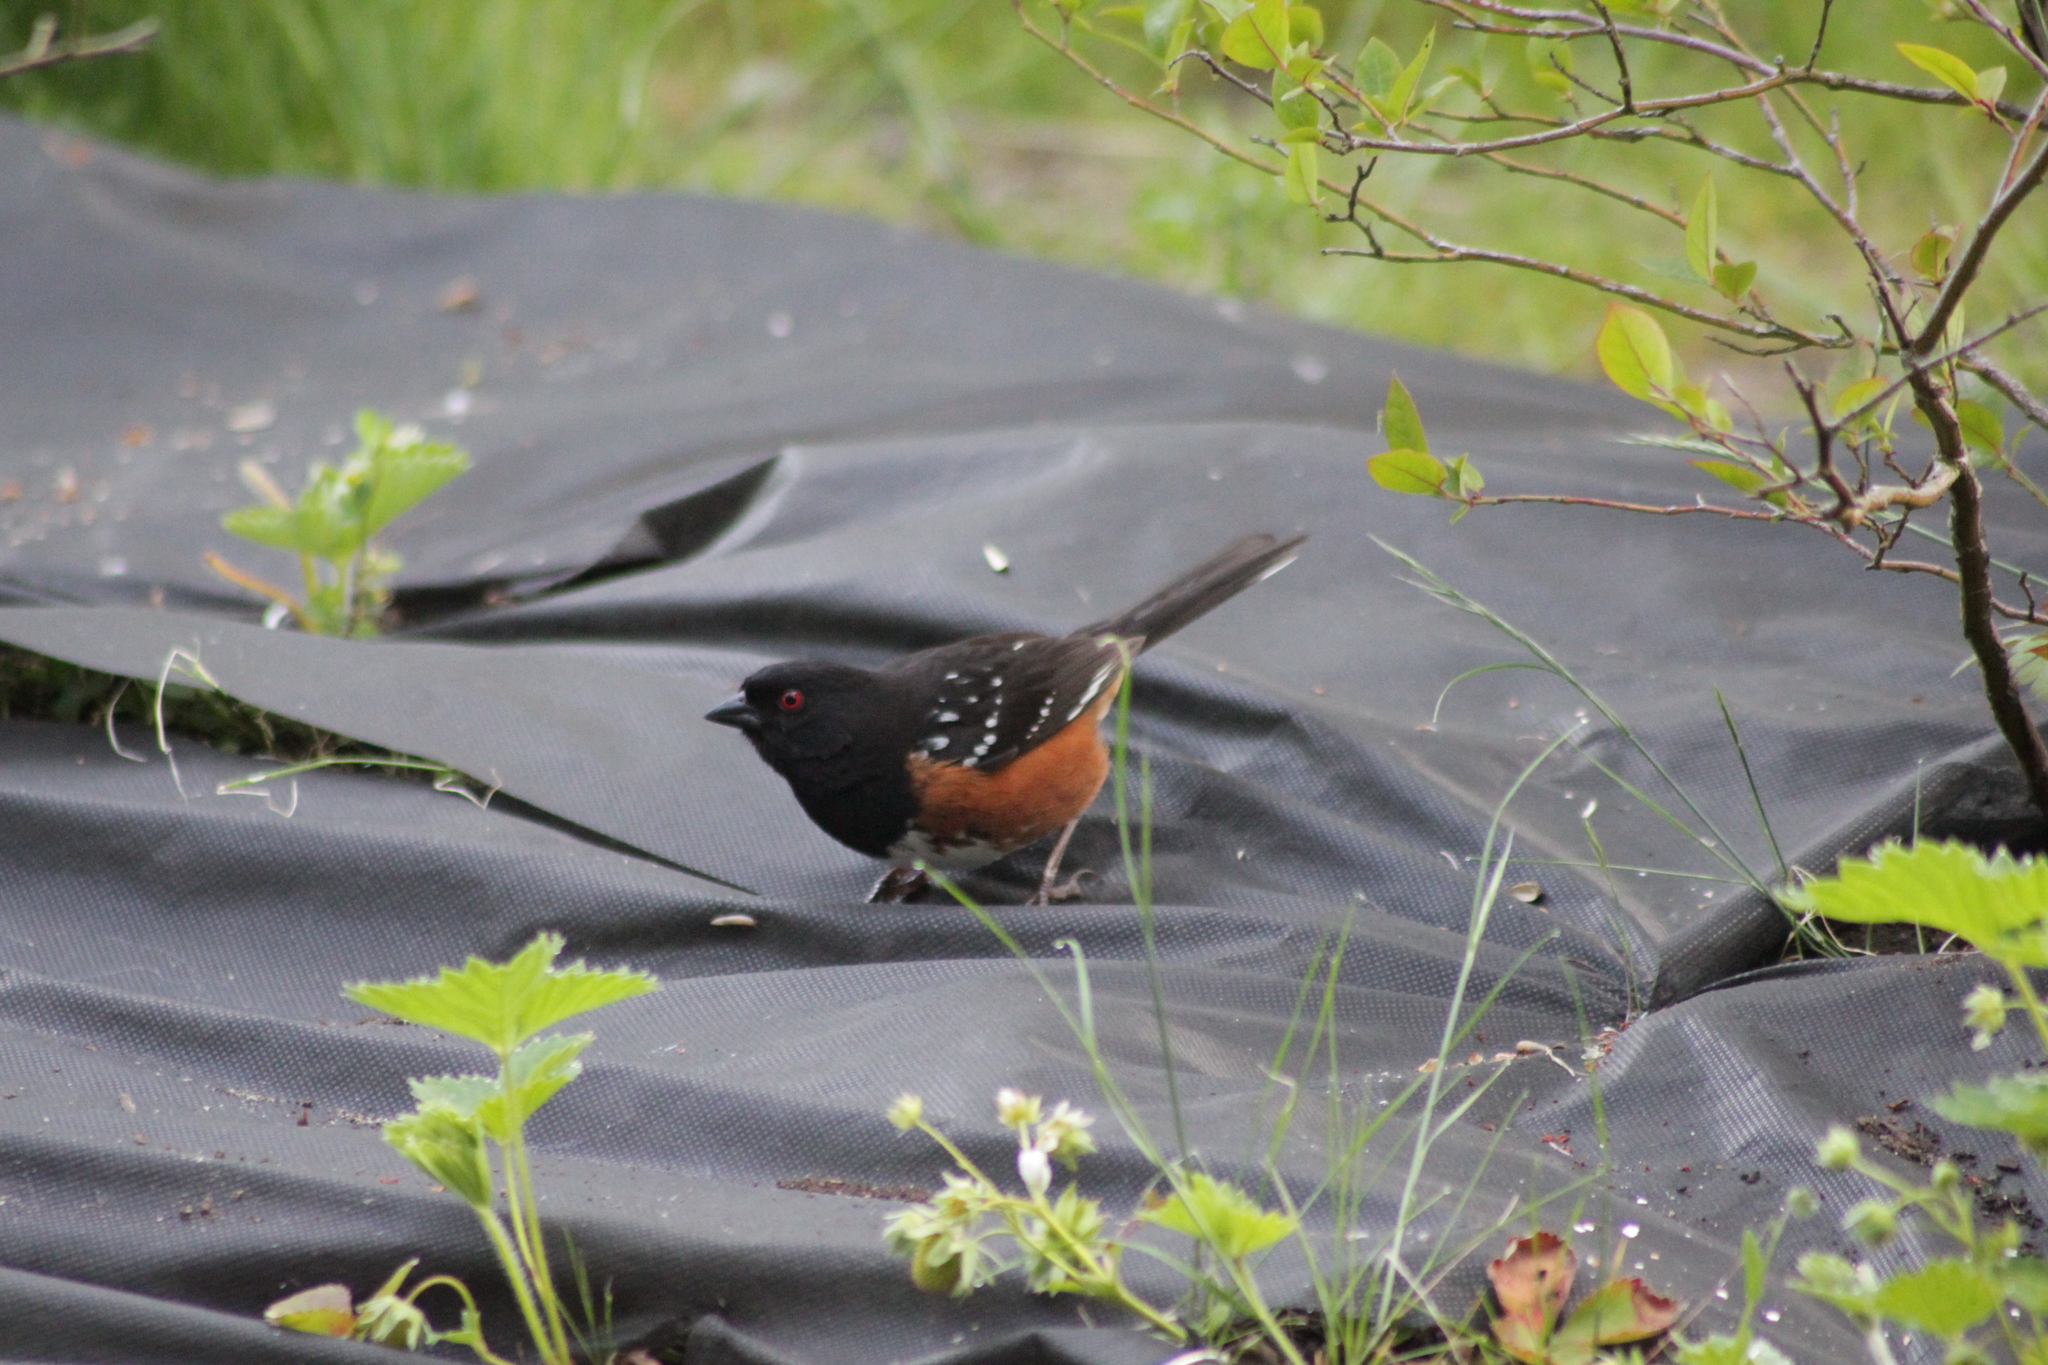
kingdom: Animalia
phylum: Chordata
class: Aves
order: Passeriformes
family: Passerellidae
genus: Pipilo
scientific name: Pipilo maculatus
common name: Spotted towhee
